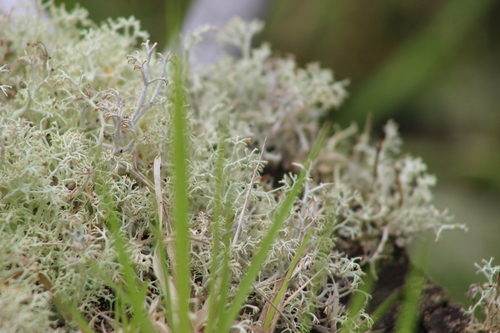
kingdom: Fungi
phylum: Ascomycota
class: Lecanoromycetes
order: Lecanorales
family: Cladoniaceae
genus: Cladonia
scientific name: Cladonia arbuscula
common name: Reindeer lichen
